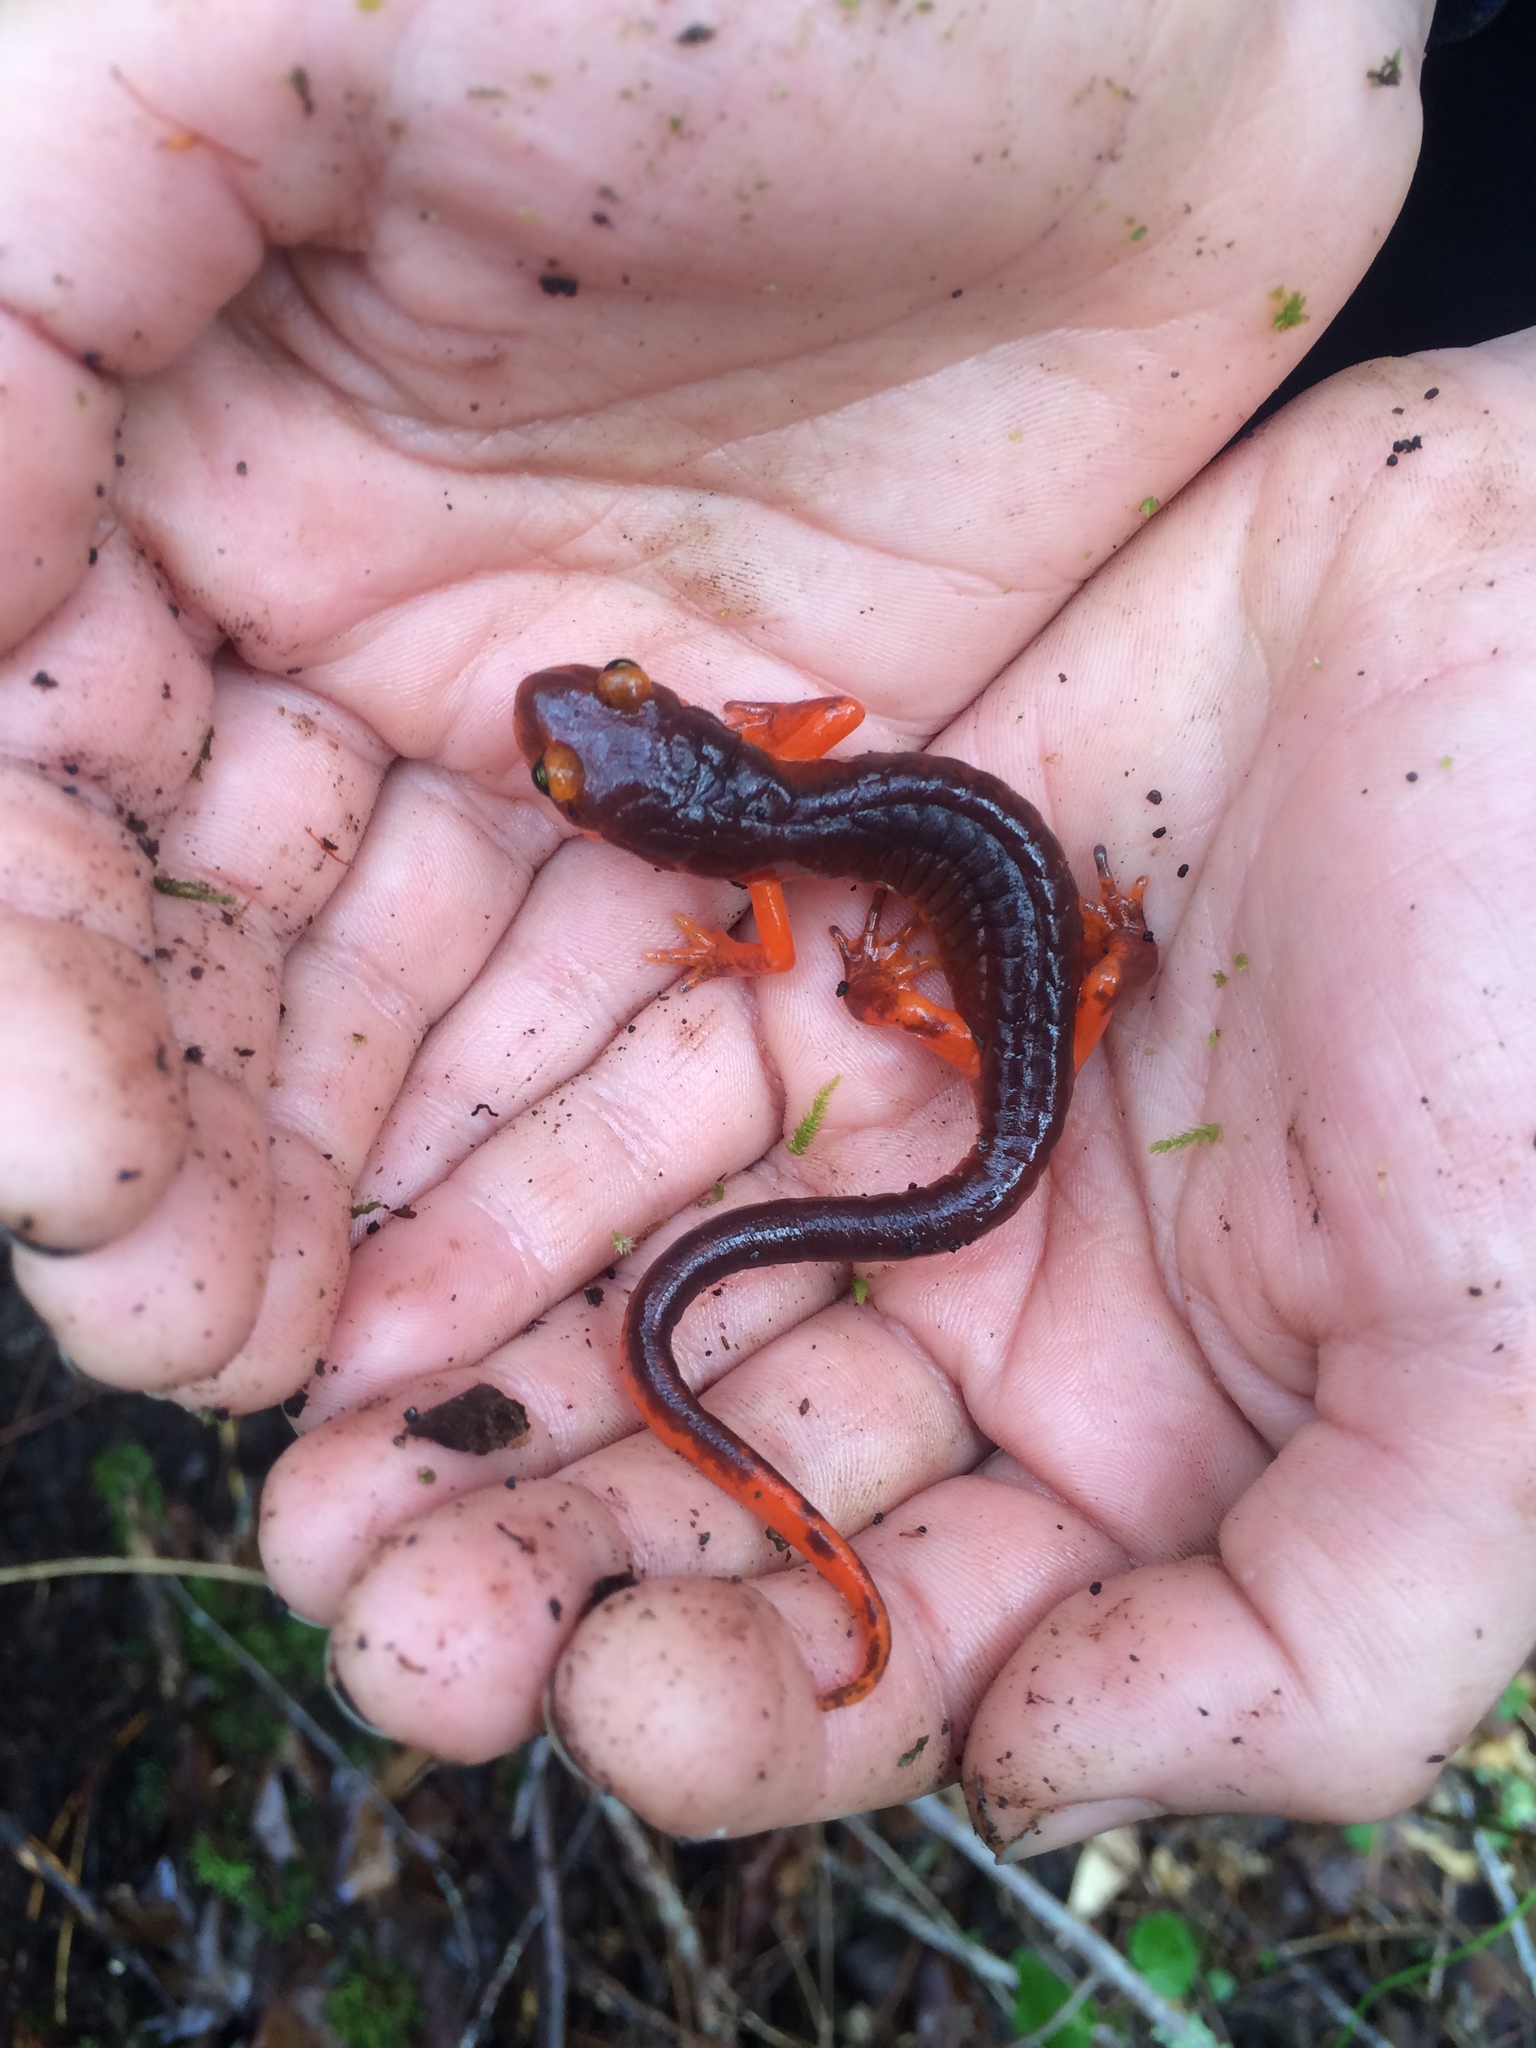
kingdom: Animalia
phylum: Chordata
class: Amphibia
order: Caudata
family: Plethodontidae
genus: Ensatina
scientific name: Ensatina eschscholtzii
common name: Ensatina
